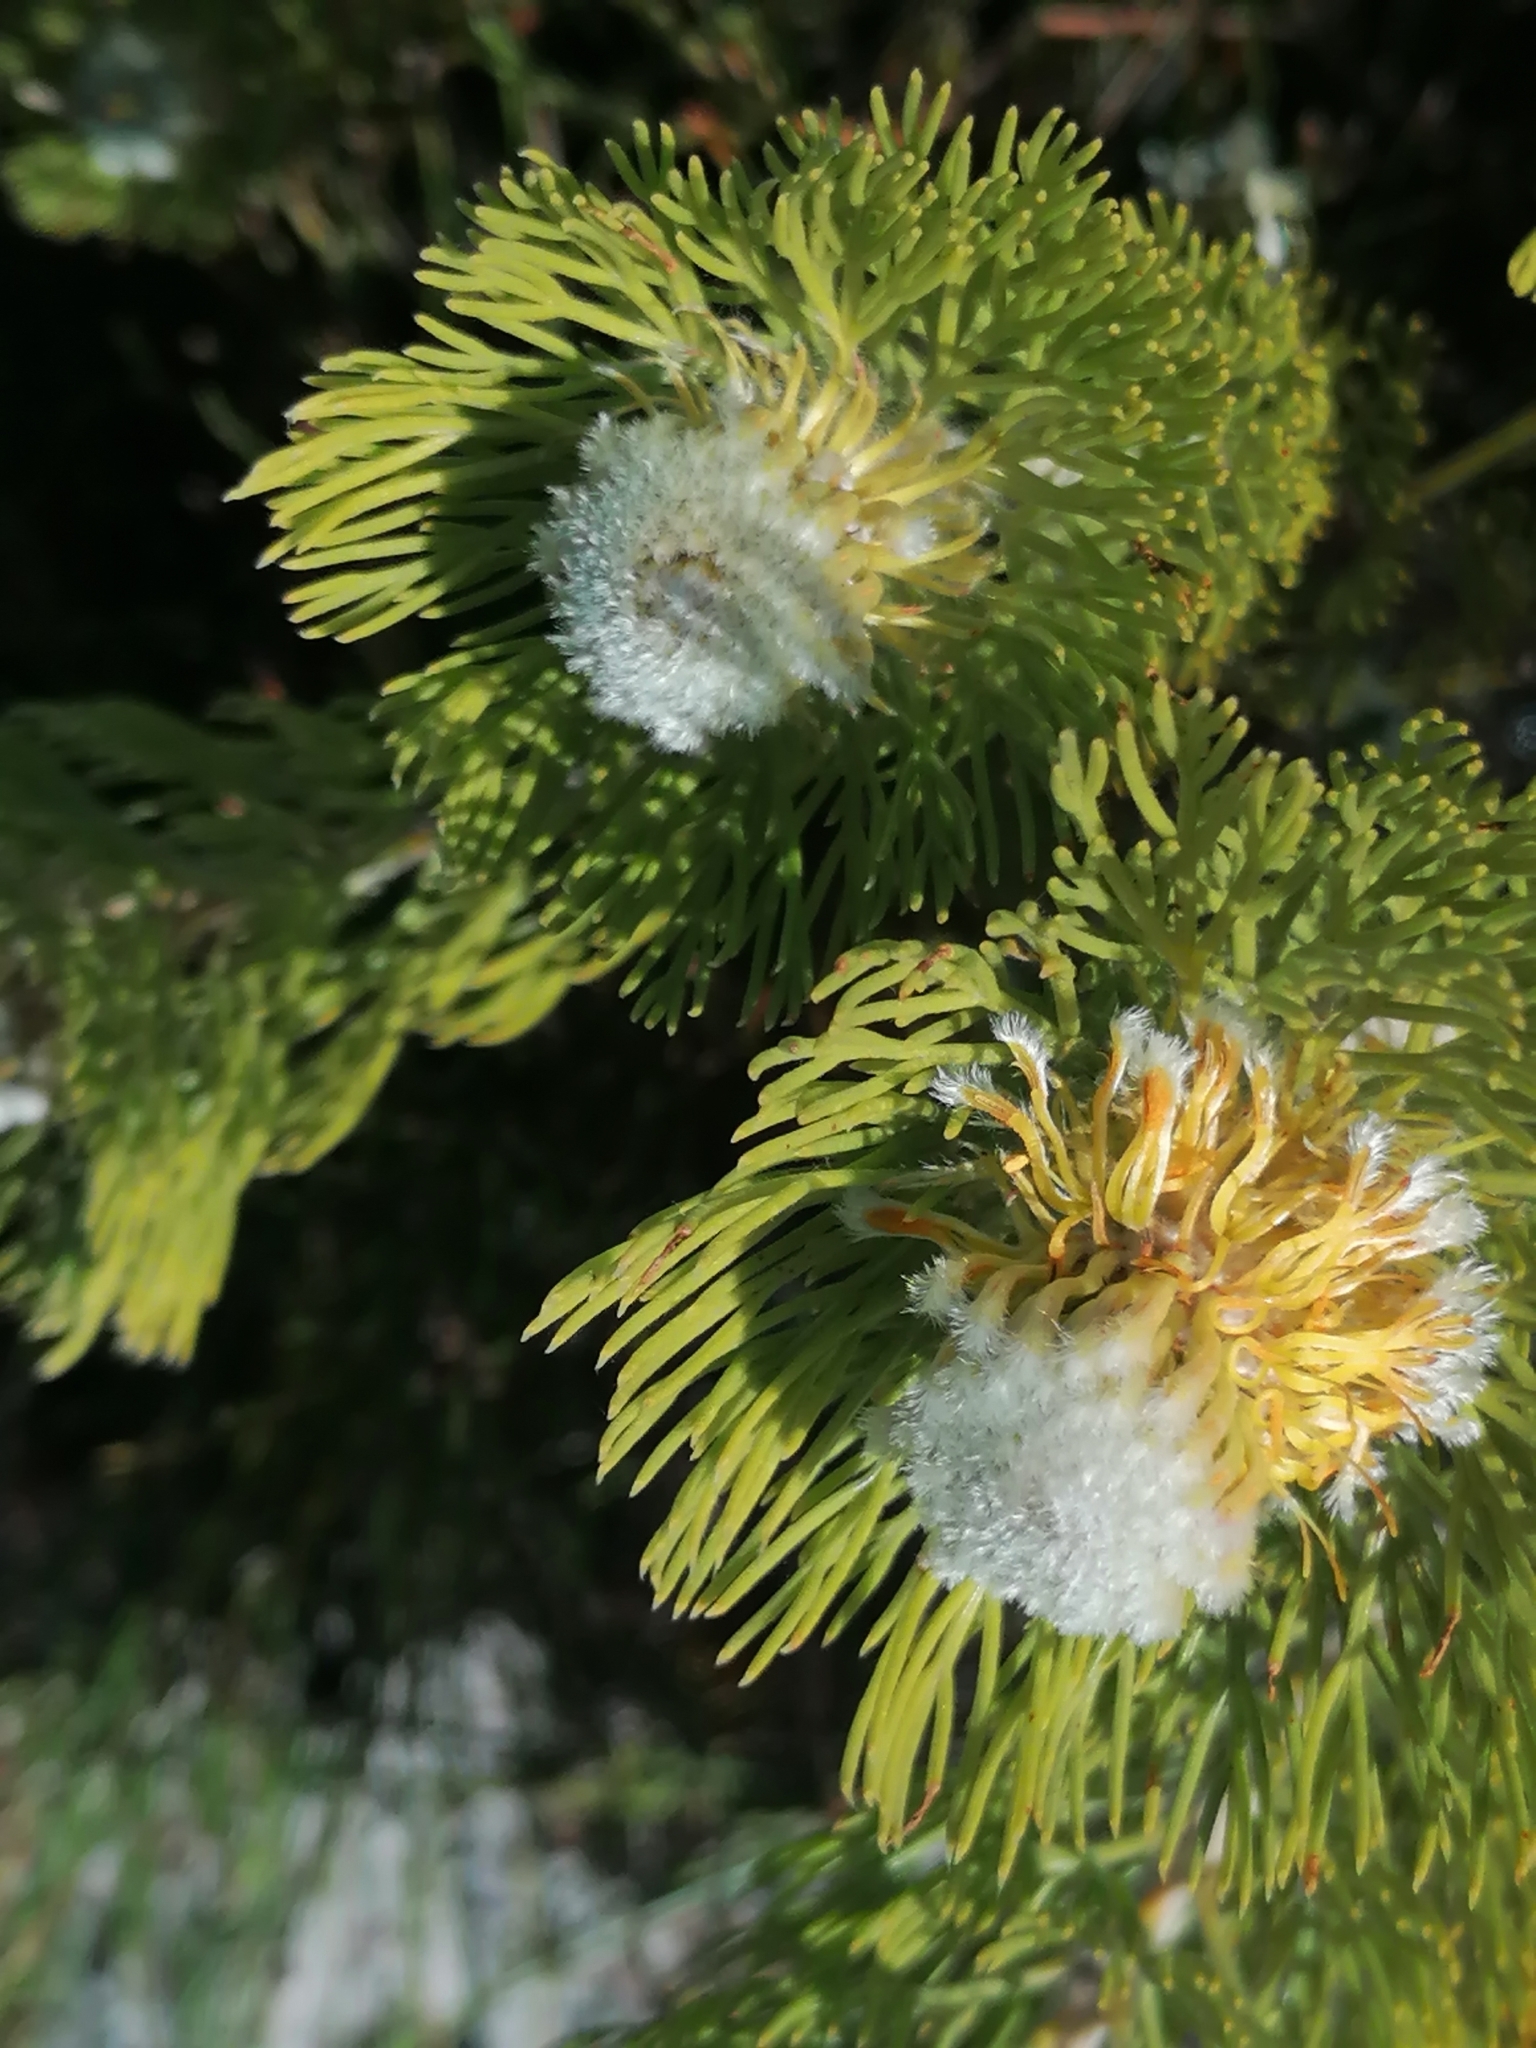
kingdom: Plantae
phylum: Tracheophyta
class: Magnoliopsida
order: Proteales
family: Proteaceae
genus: Serruria
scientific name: Serruria villosa
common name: Golden spiderhead
